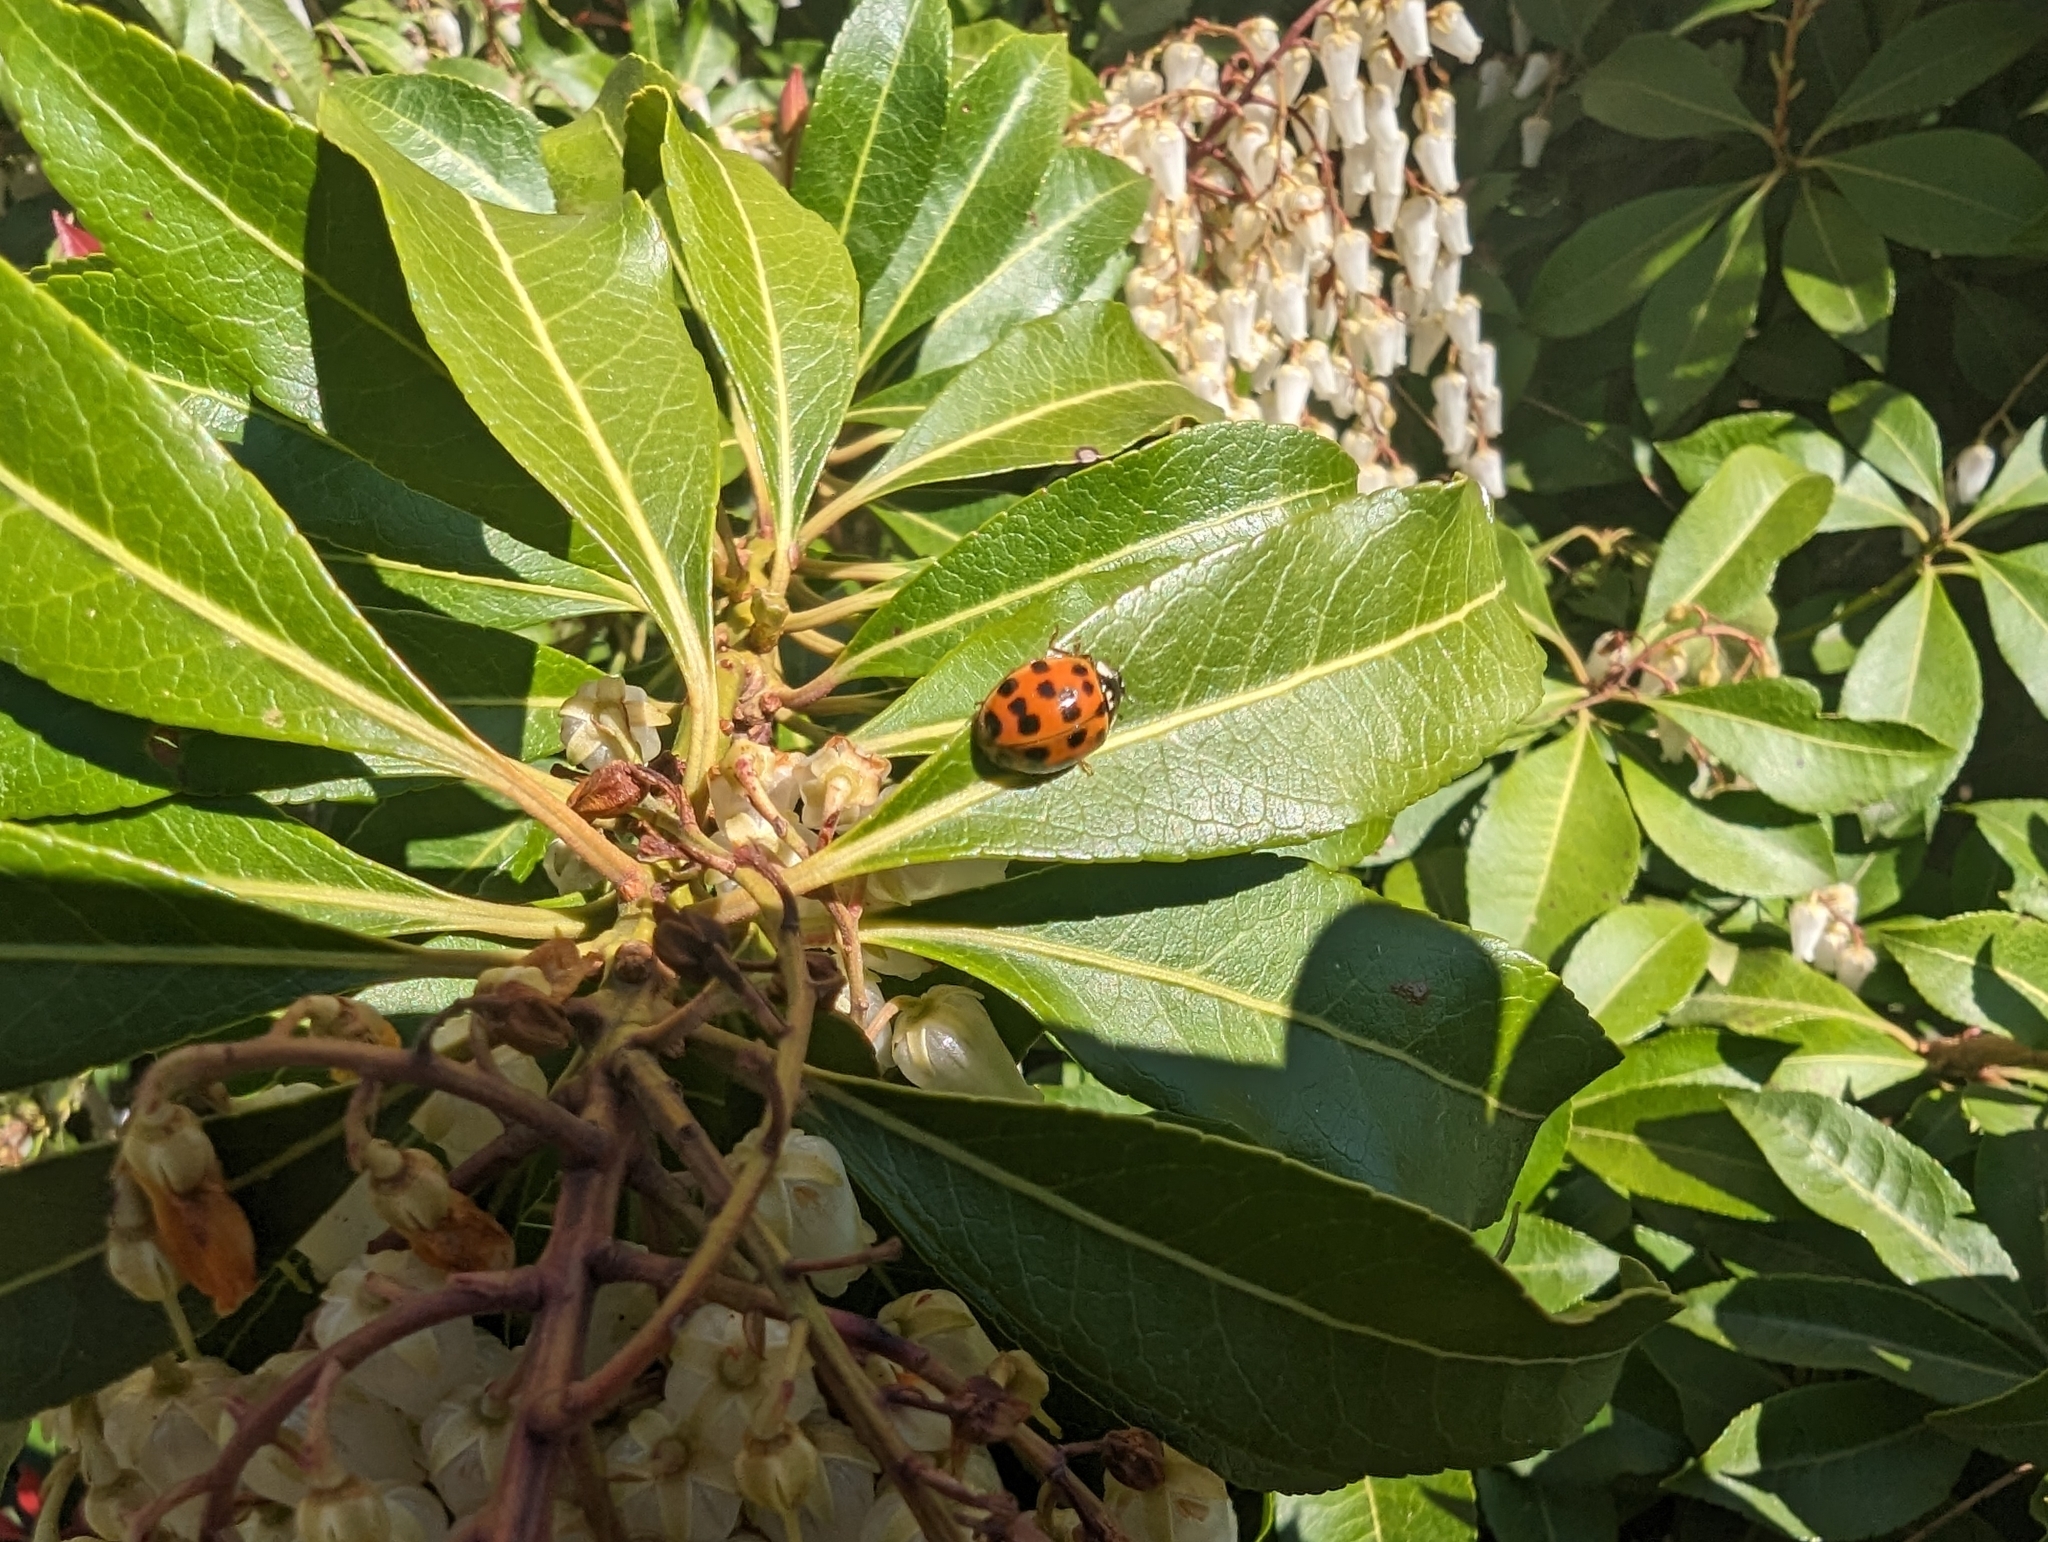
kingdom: Animalia
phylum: Arthropoda
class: Insecta
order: Coleoptera
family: Coccinellidae
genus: Harmonia
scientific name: Harmonia axyridis
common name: Harlequin ladybird
